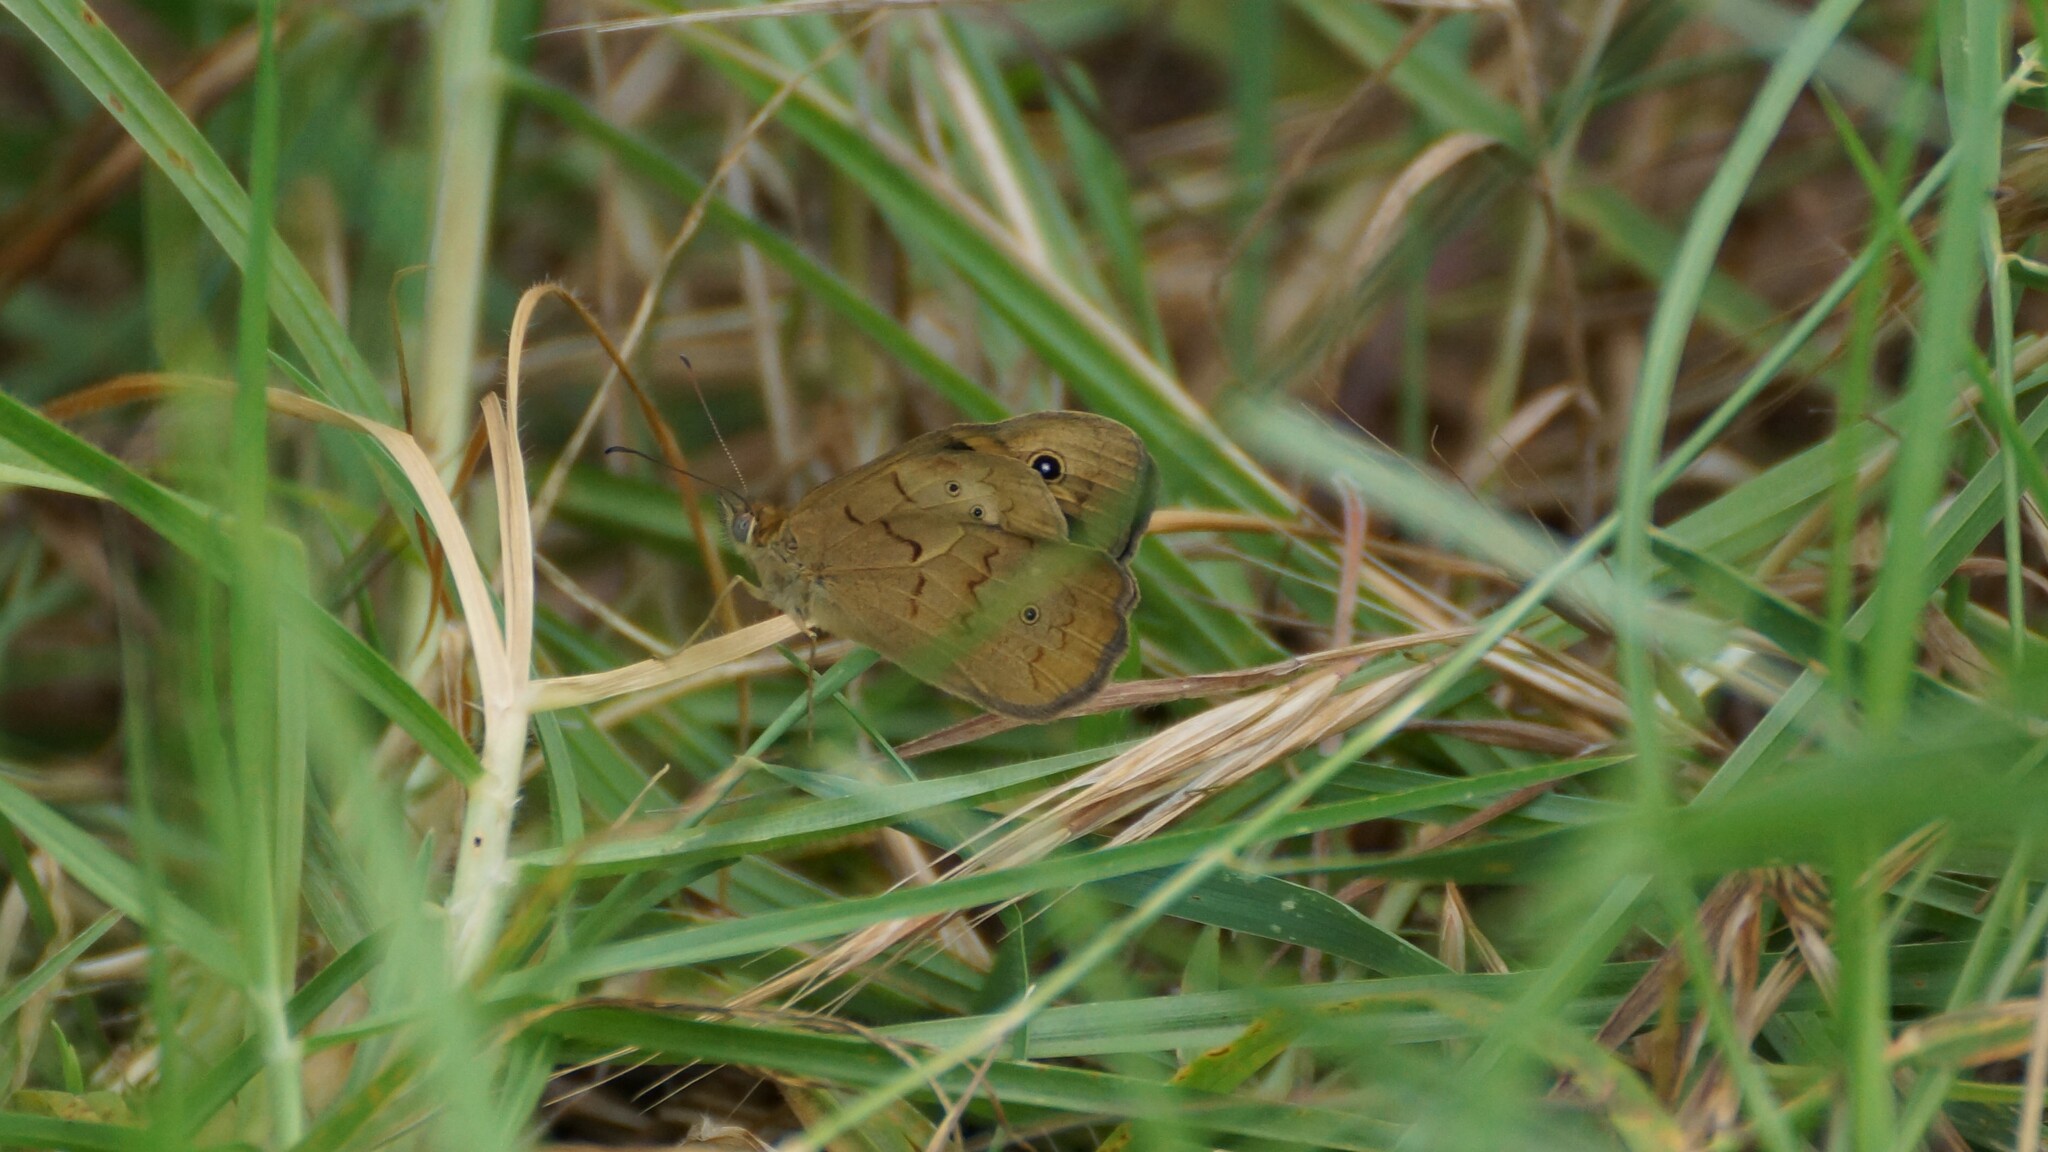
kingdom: Animalia
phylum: Arthropoda
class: Insecta
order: Lepidoptera
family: Nymphalidae
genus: Heteronympha
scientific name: Heteronympha merope
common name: Common brown
